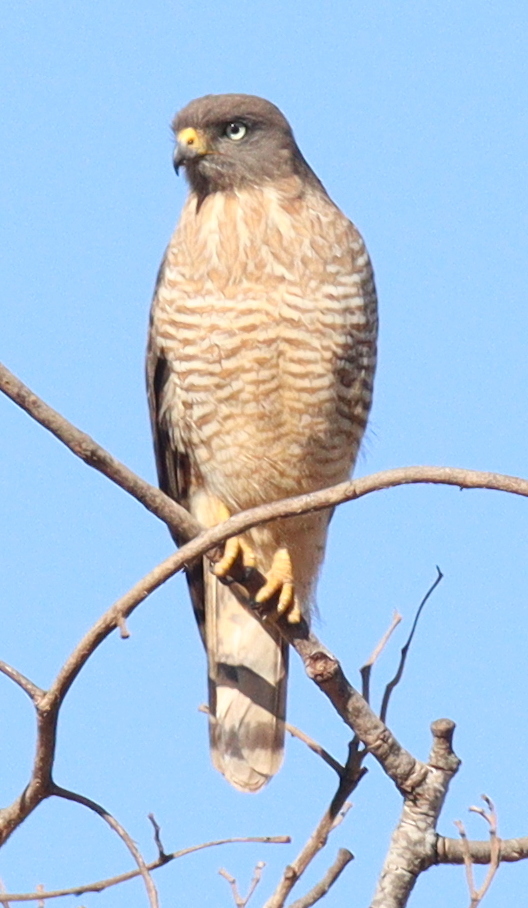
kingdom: Animalia
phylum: Chordata
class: Aves
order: Accipitriformes
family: Accipitridae
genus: Rupornis
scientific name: Rupornis magnirostris
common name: Roadside hawk
